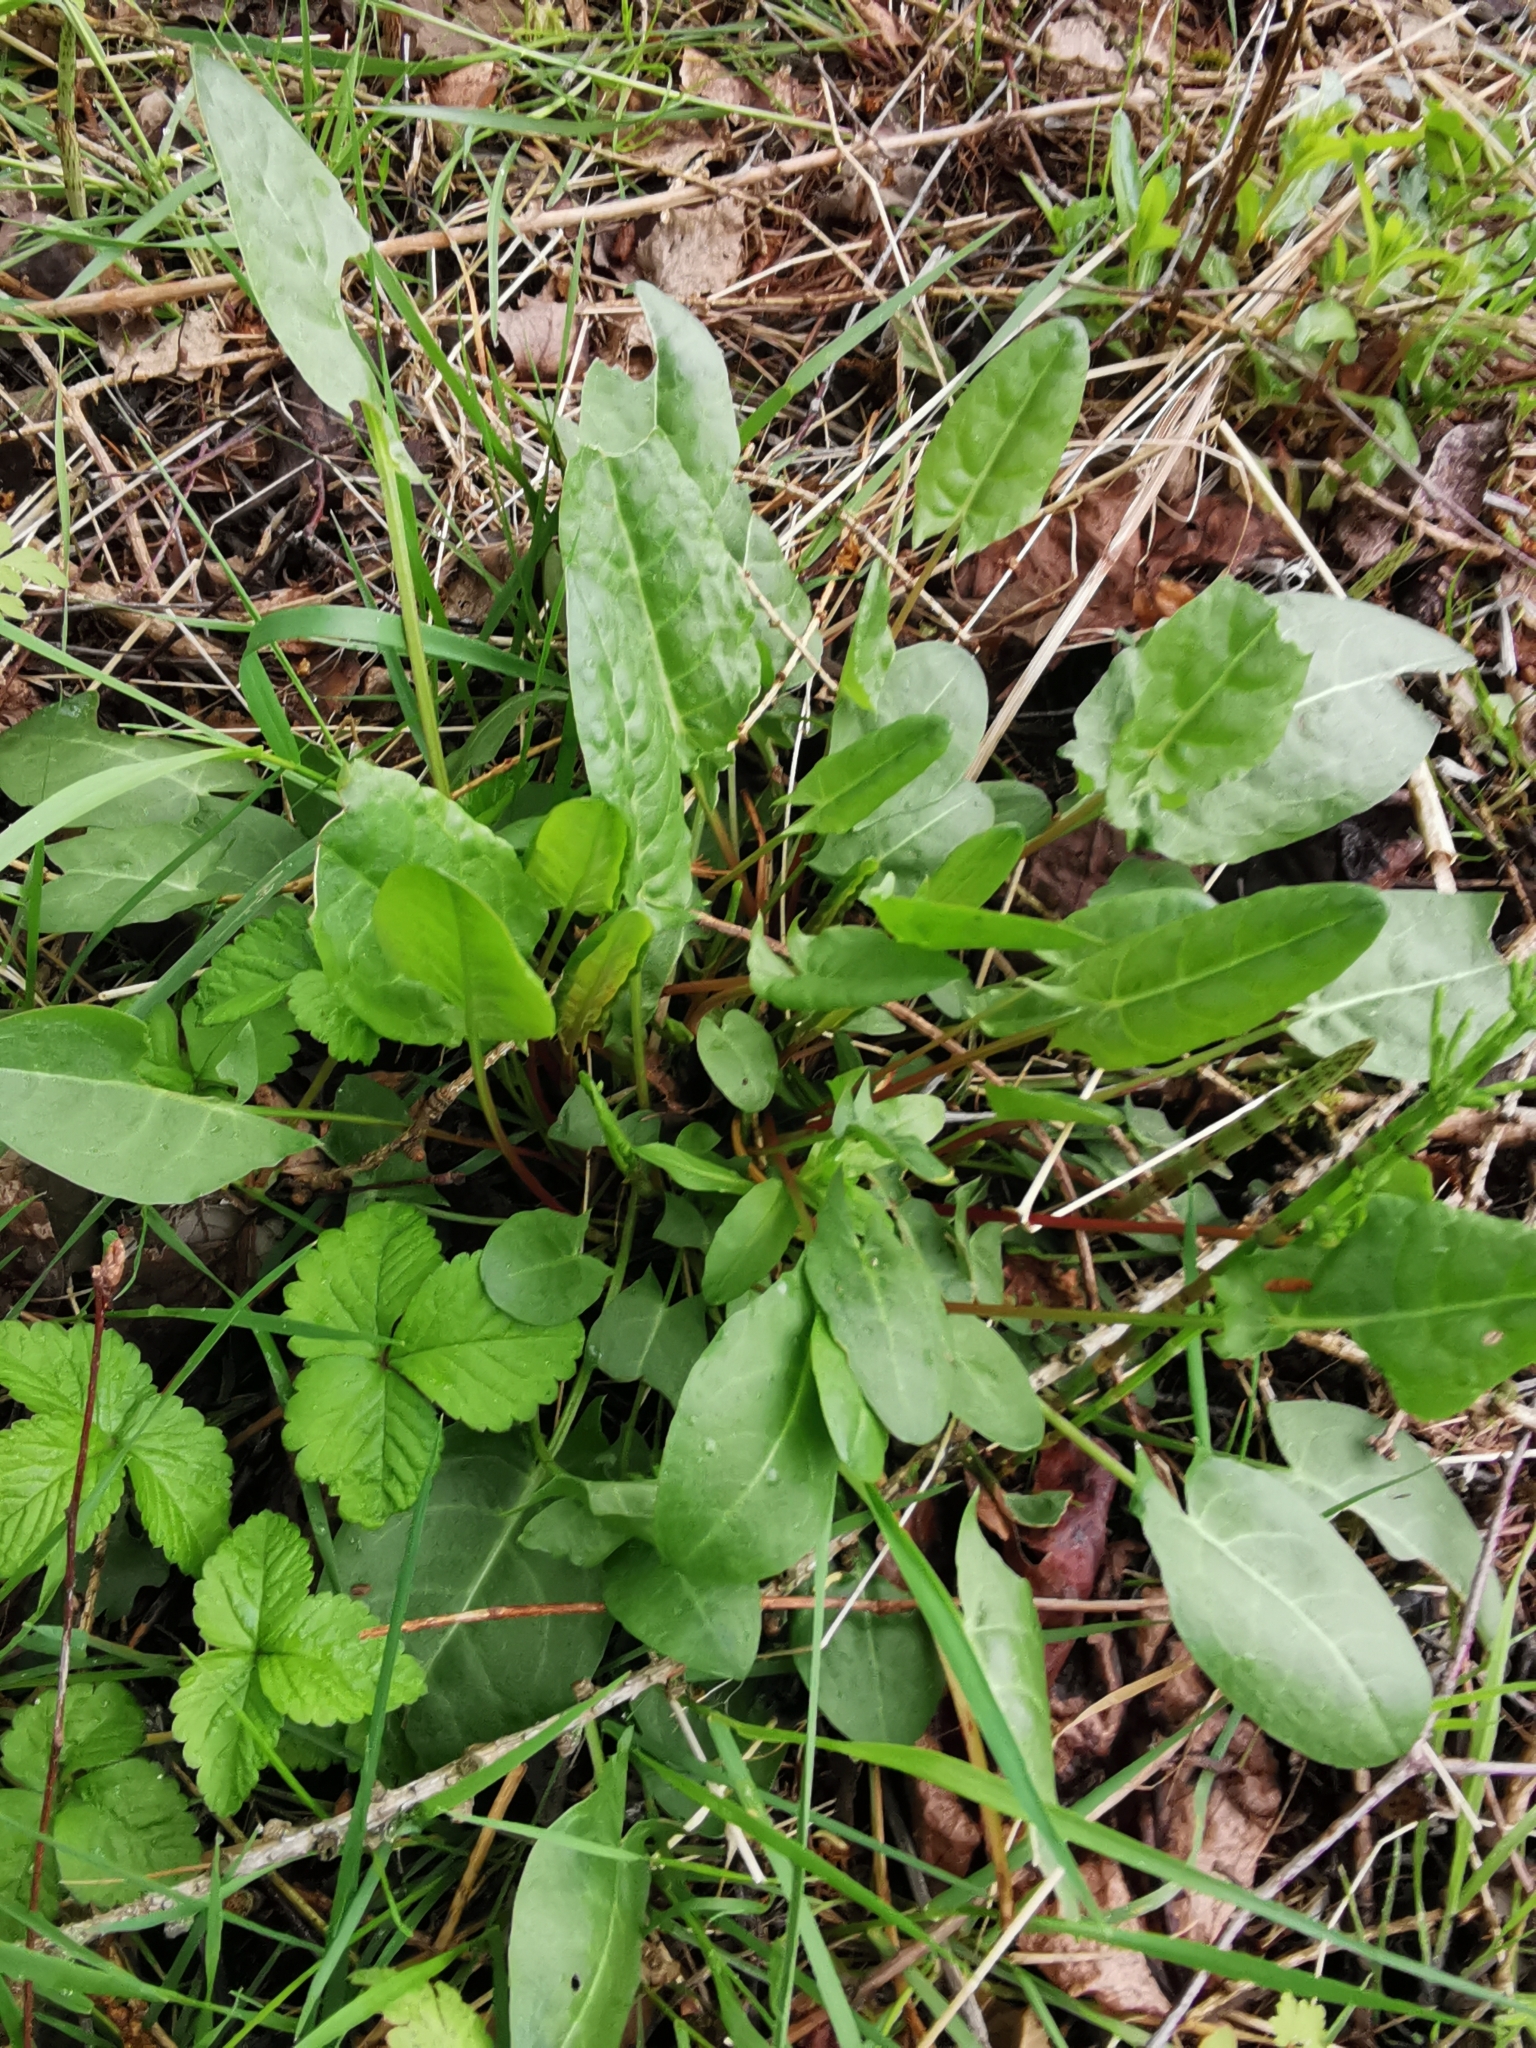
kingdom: Plantae
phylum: Tracheophyta
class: Magnoliopsida
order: Caryophyllales
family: Polygonaceae
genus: Rumex
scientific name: Rumex acetosa
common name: Garden sorrel
